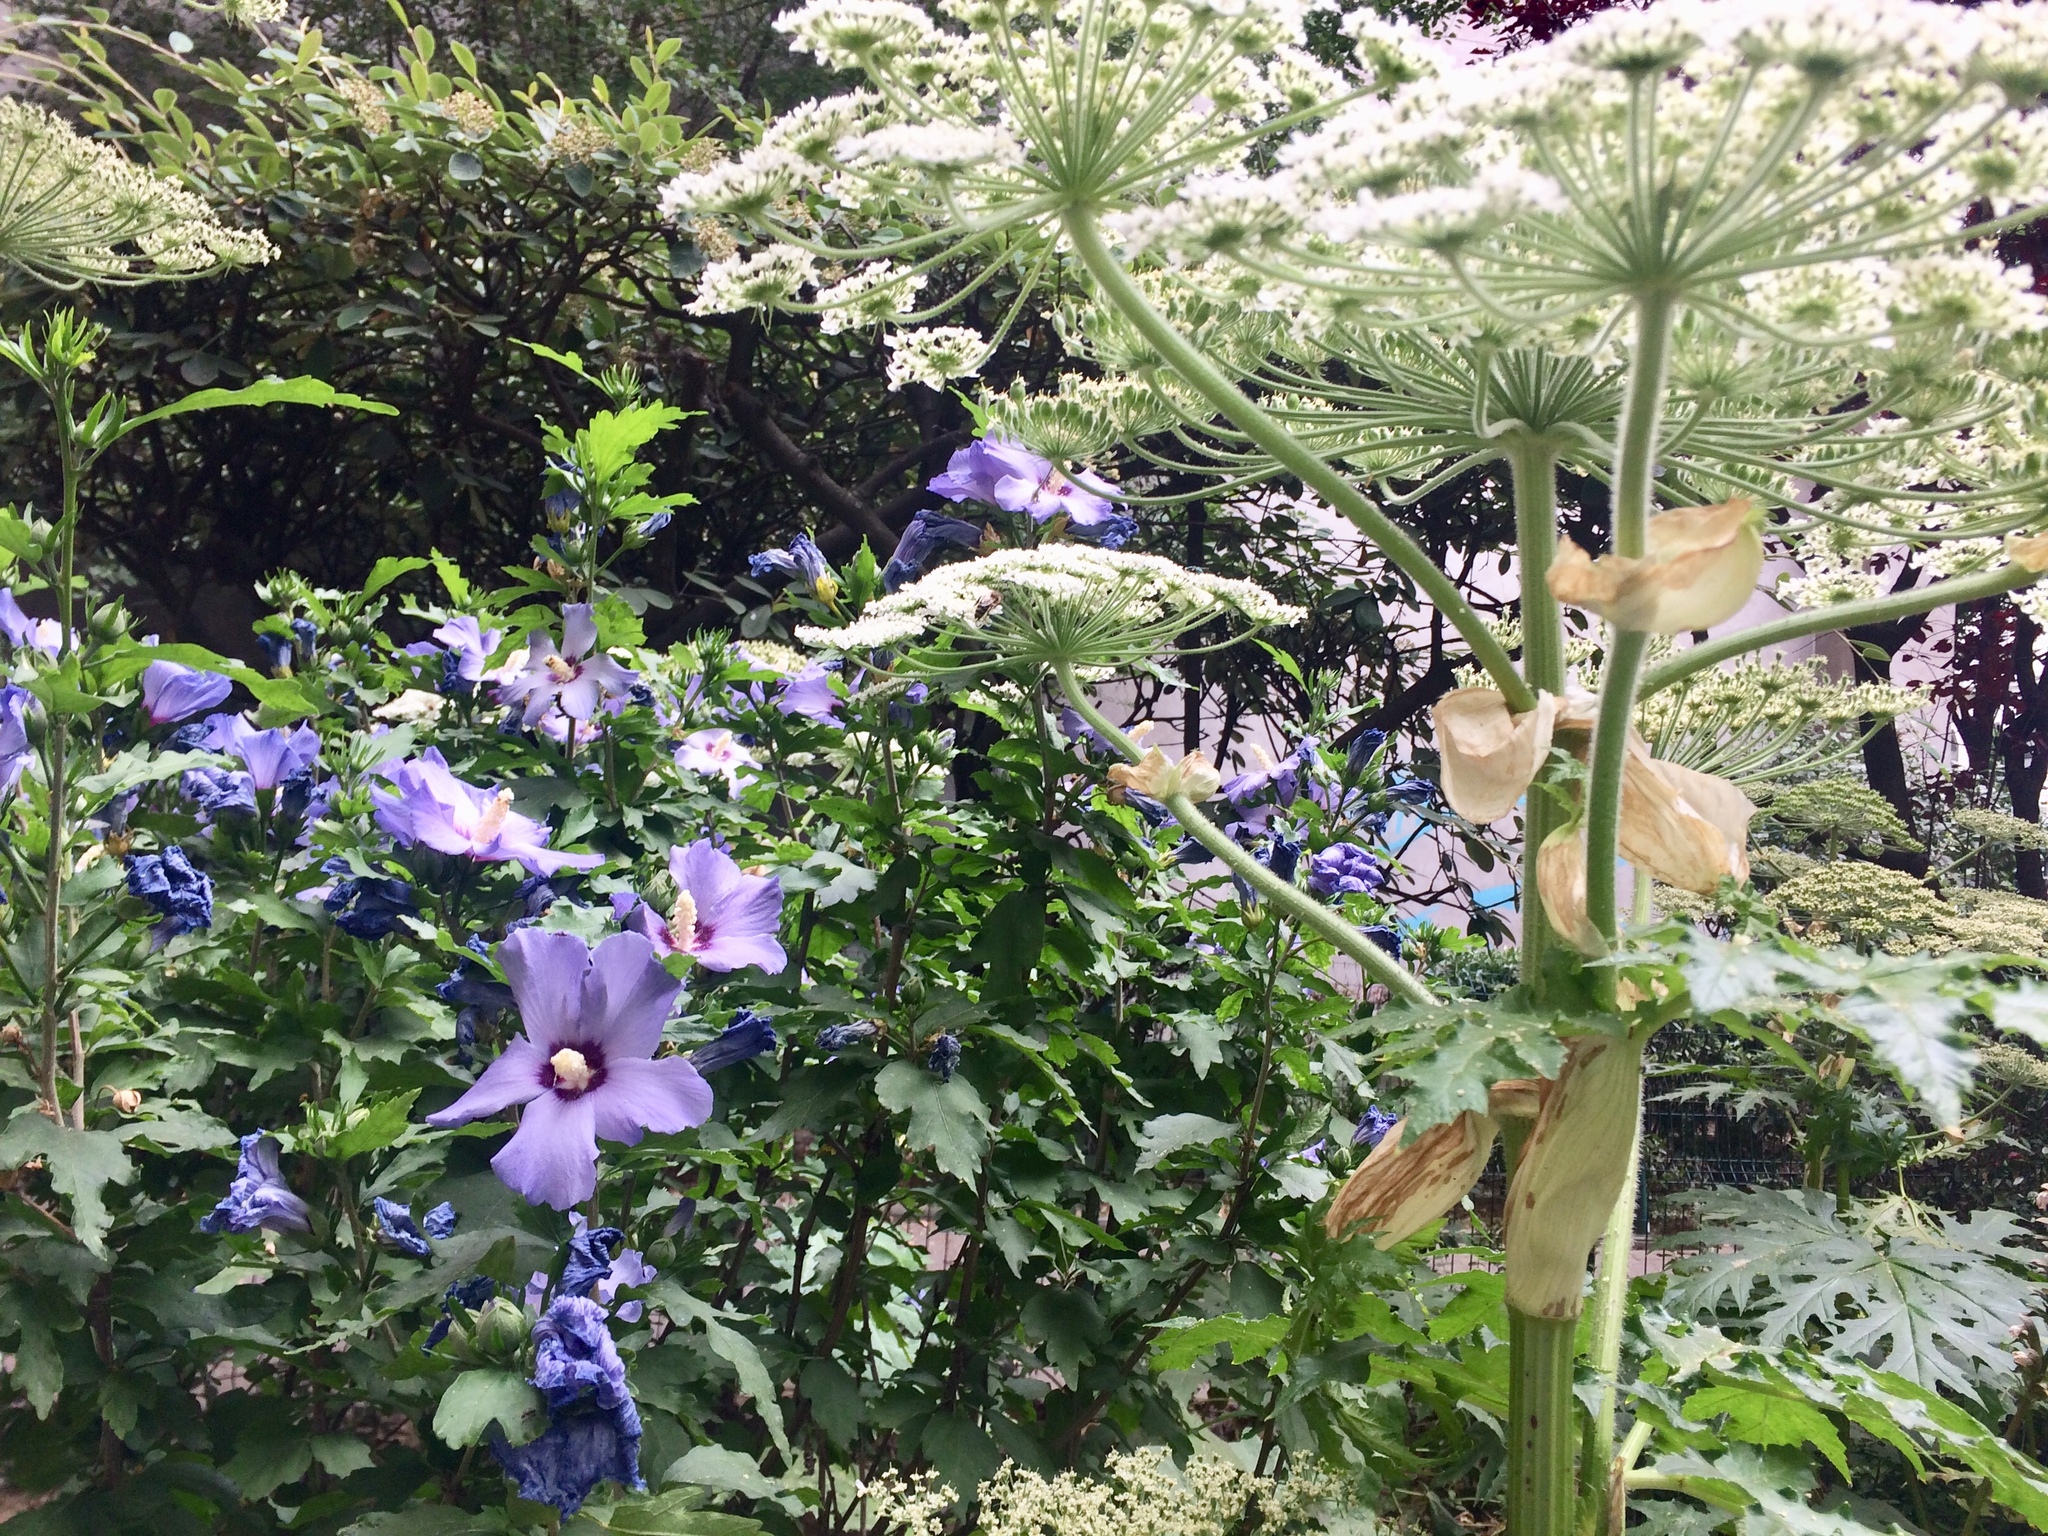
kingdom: Plantae
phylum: Tracheophyta
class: Magnoliopsida
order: Apiales
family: Apiaceae
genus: Heracleum
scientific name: Heracleum mantegazzianum
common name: Giant hogweed
